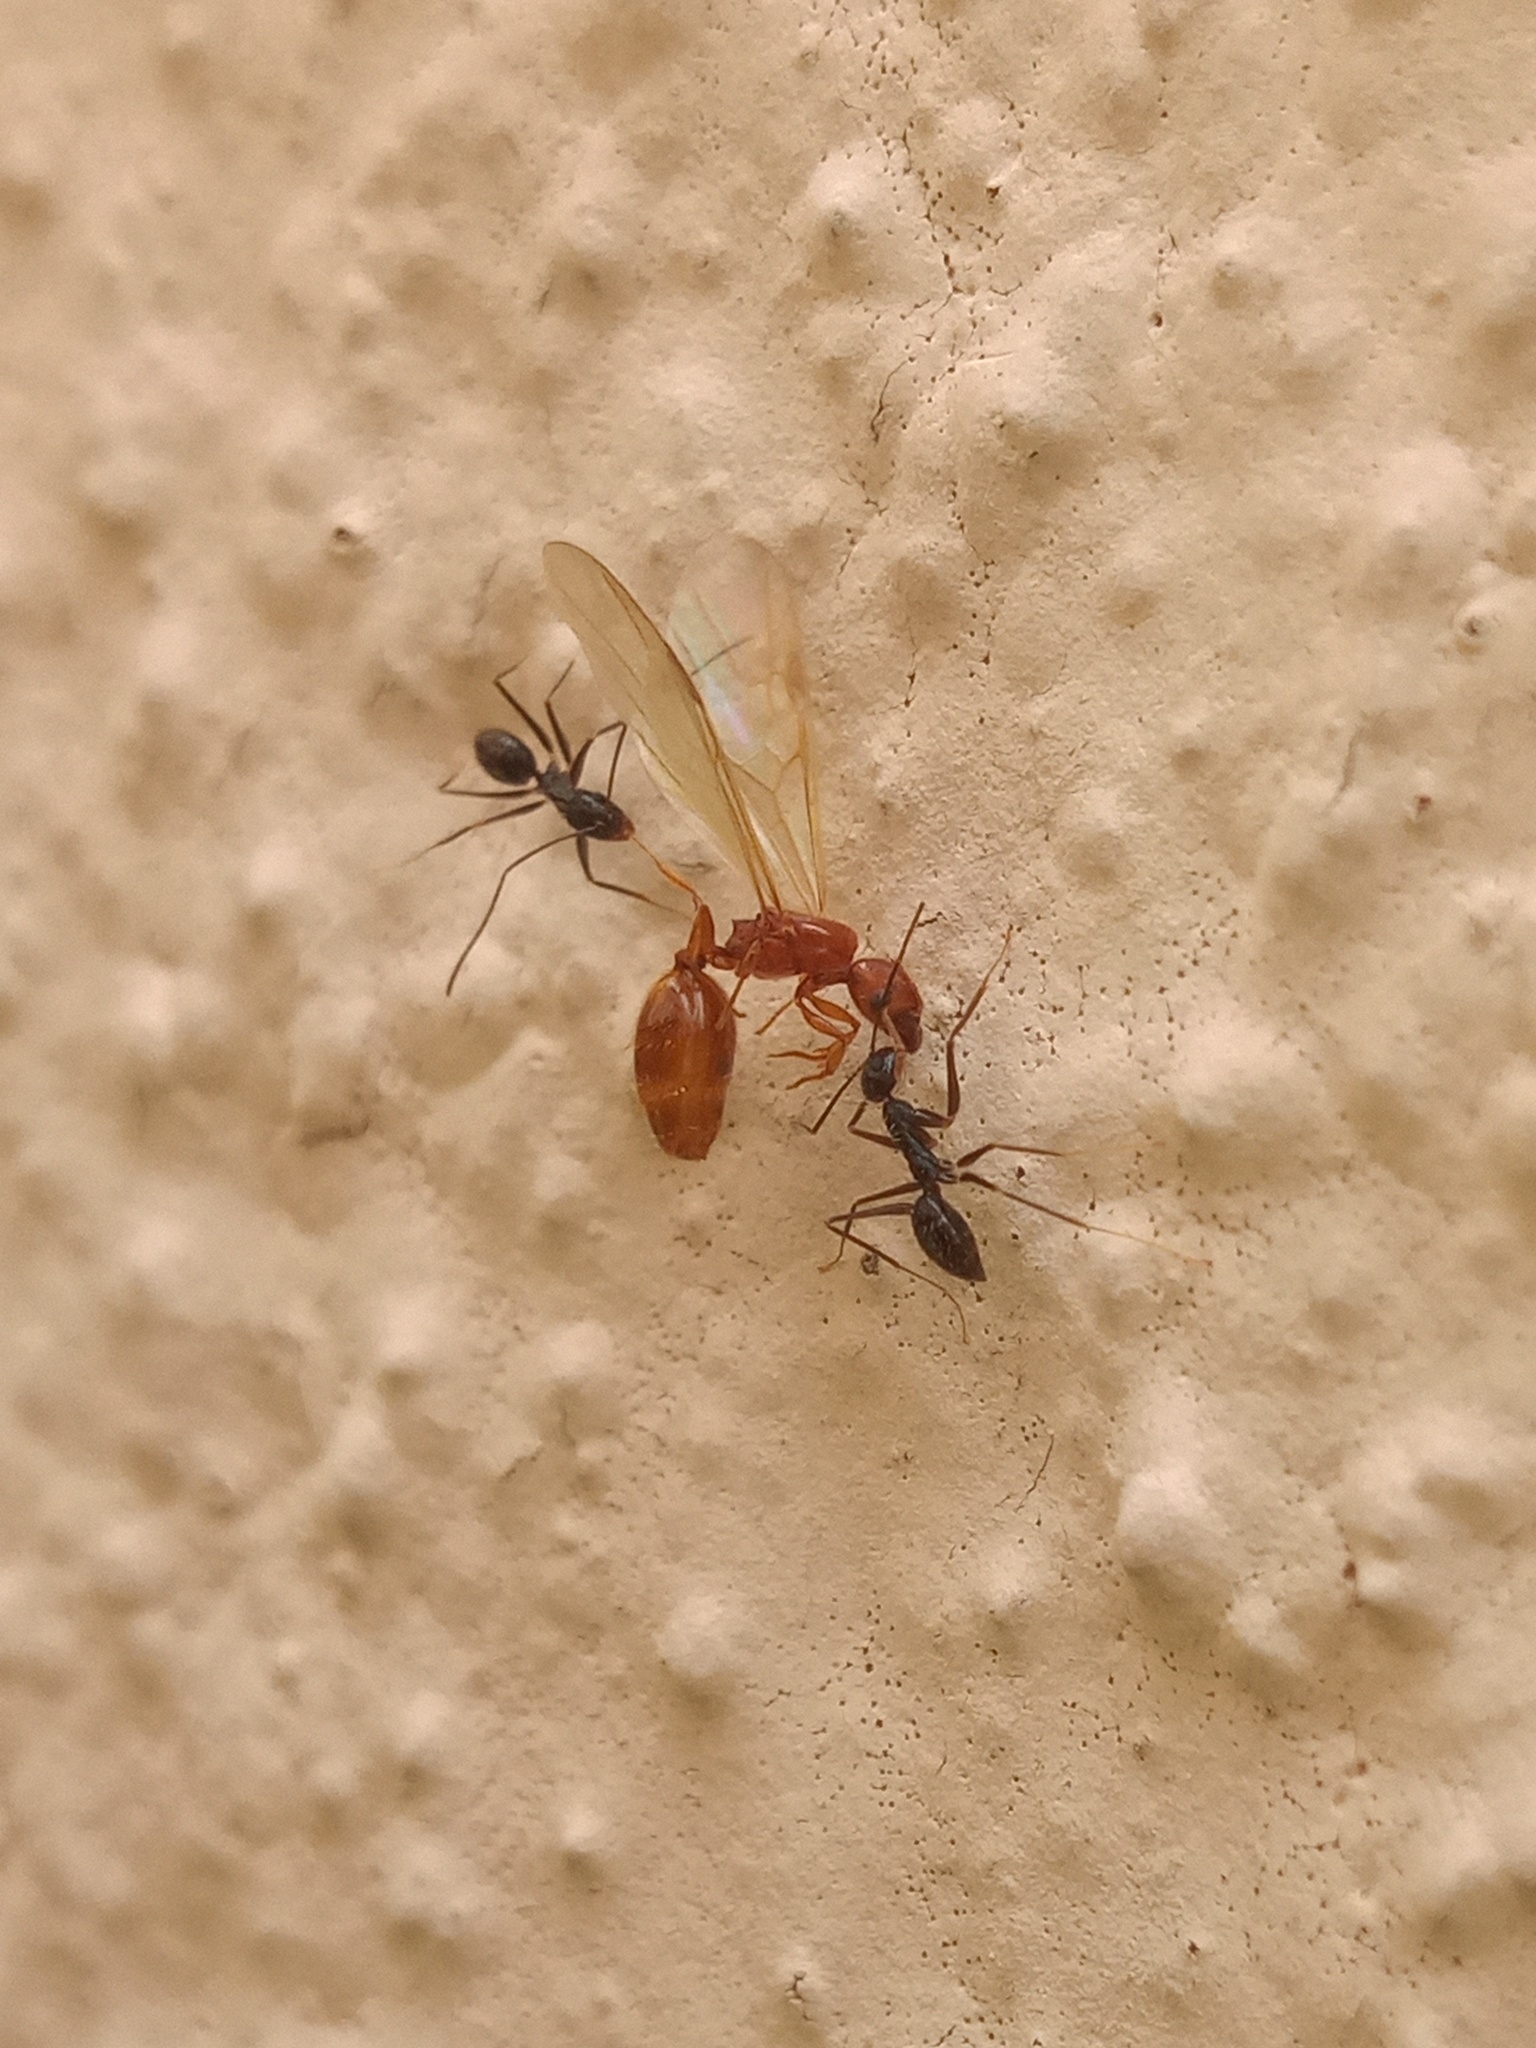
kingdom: Animalia
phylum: Arthropoda
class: Insecta
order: Hymenoptera
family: Formicidae
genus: Paratrechina
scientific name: Paratrechina longicornis
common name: Longhorned crazy ant
